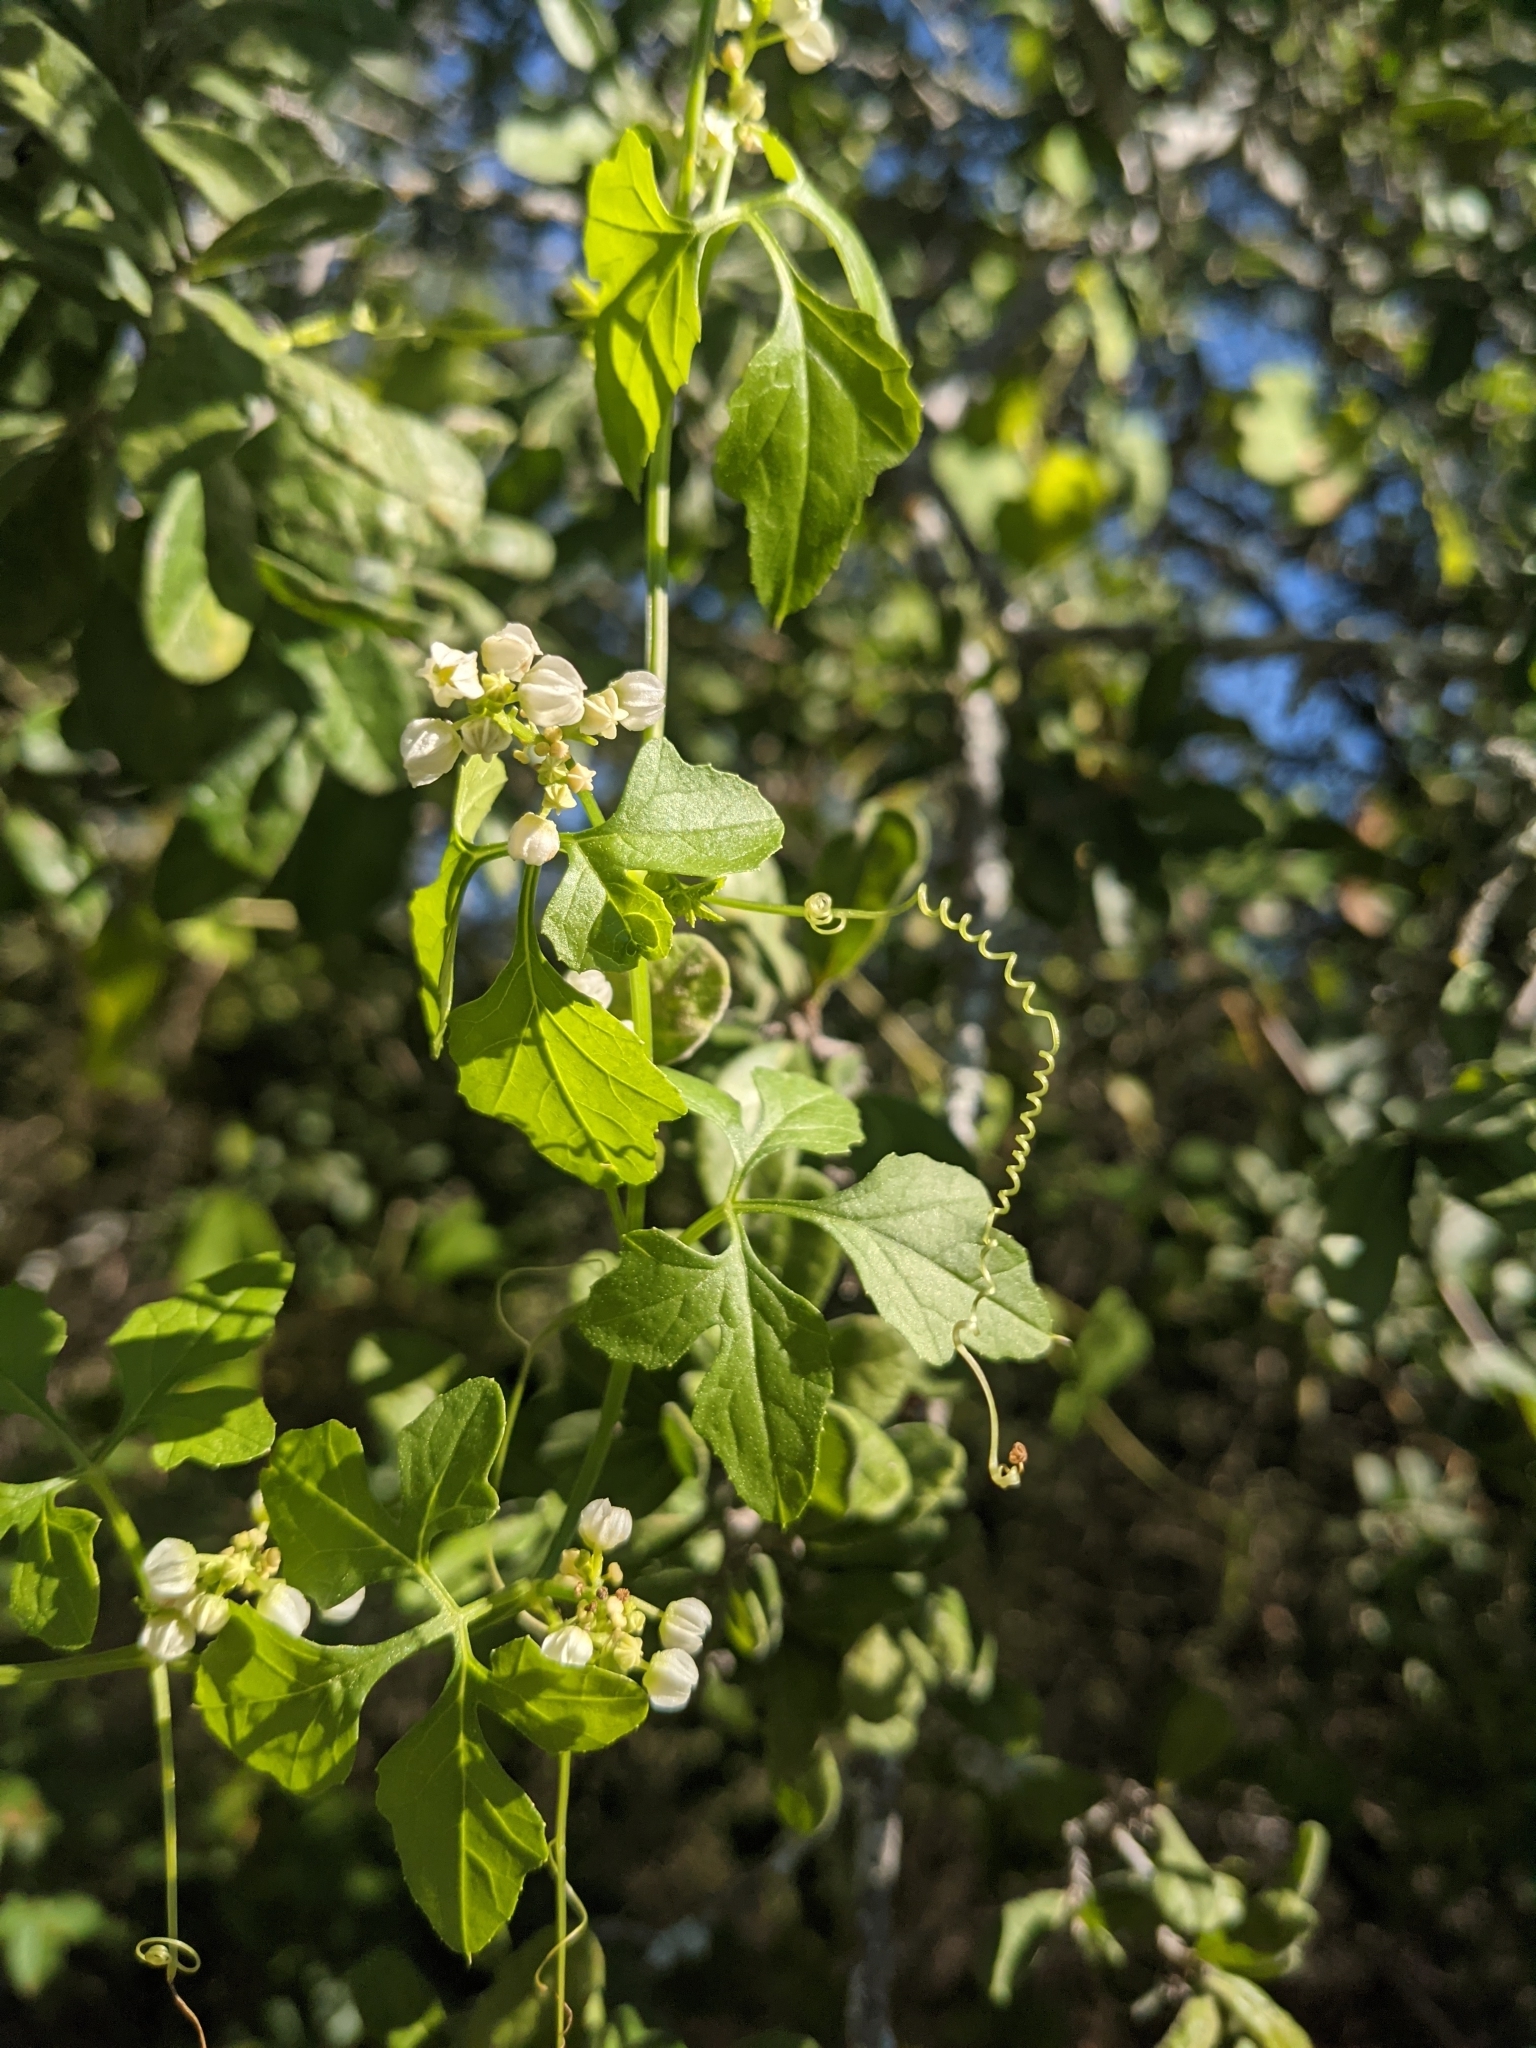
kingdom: Plantae
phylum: Tracheophyta
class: Magnoliopsida
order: Cucurbitales
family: Cucurbitaceae
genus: Cyclanthera
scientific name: Cyclanthera naudiniana
